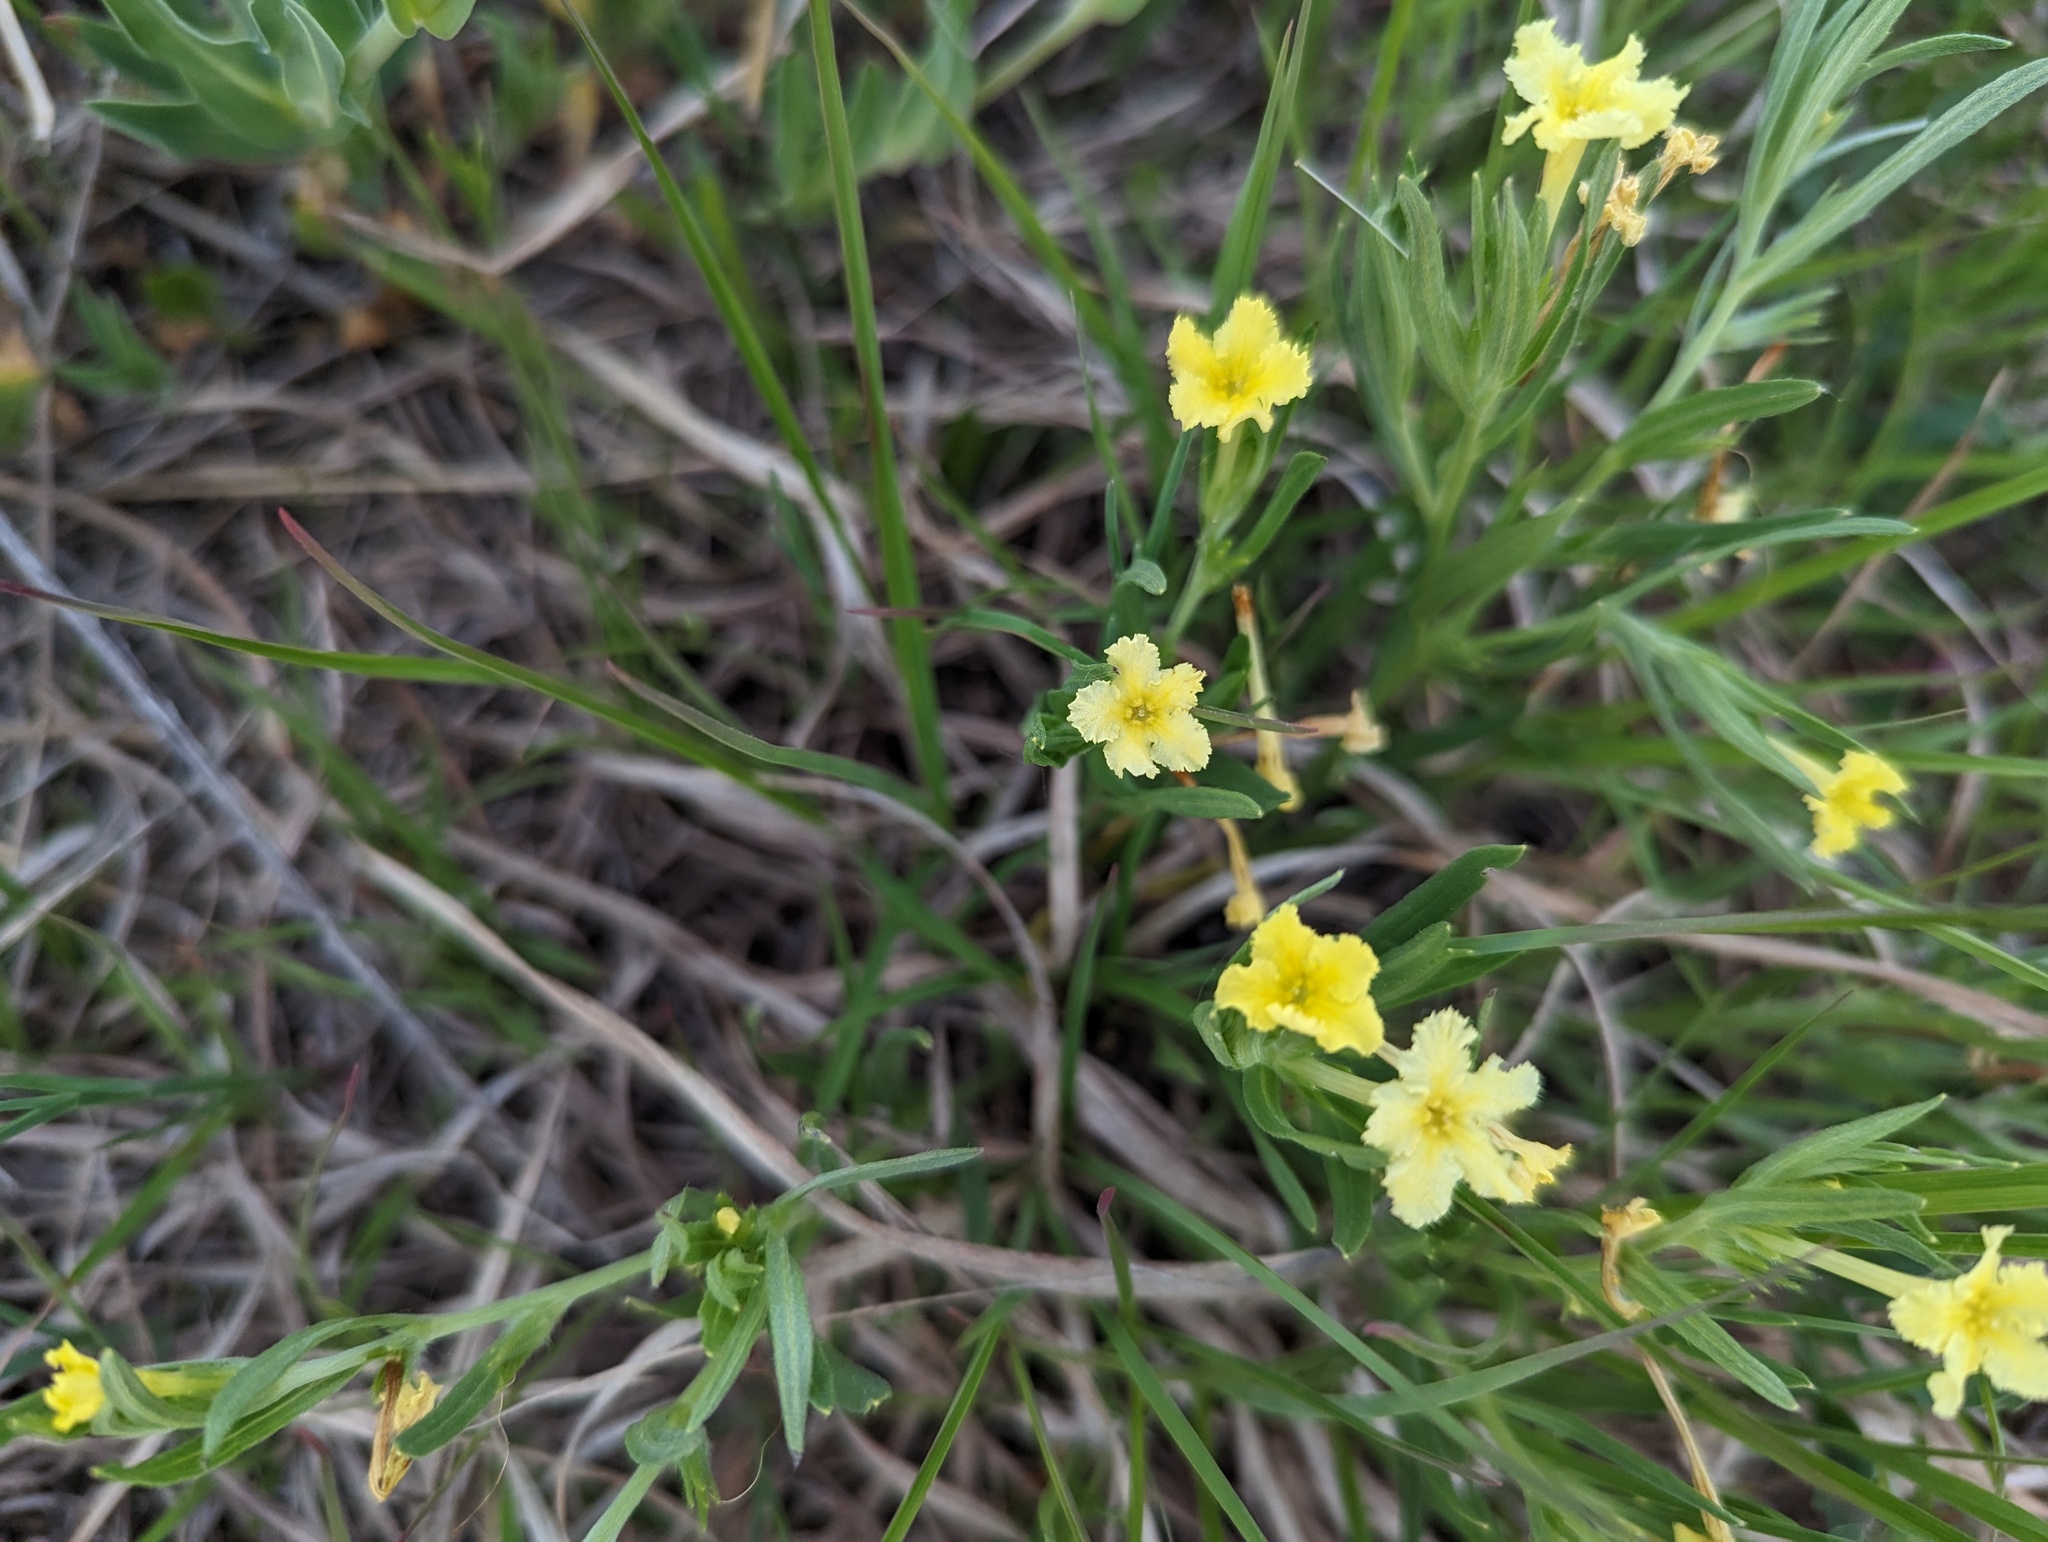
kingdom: Plantae
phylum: Tracheophyta
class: Magnoliopsida
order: Boraginales
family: Boraginaceae
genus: Lithospermum
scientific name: Lithospermum incisum
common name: Fringed gromwell
